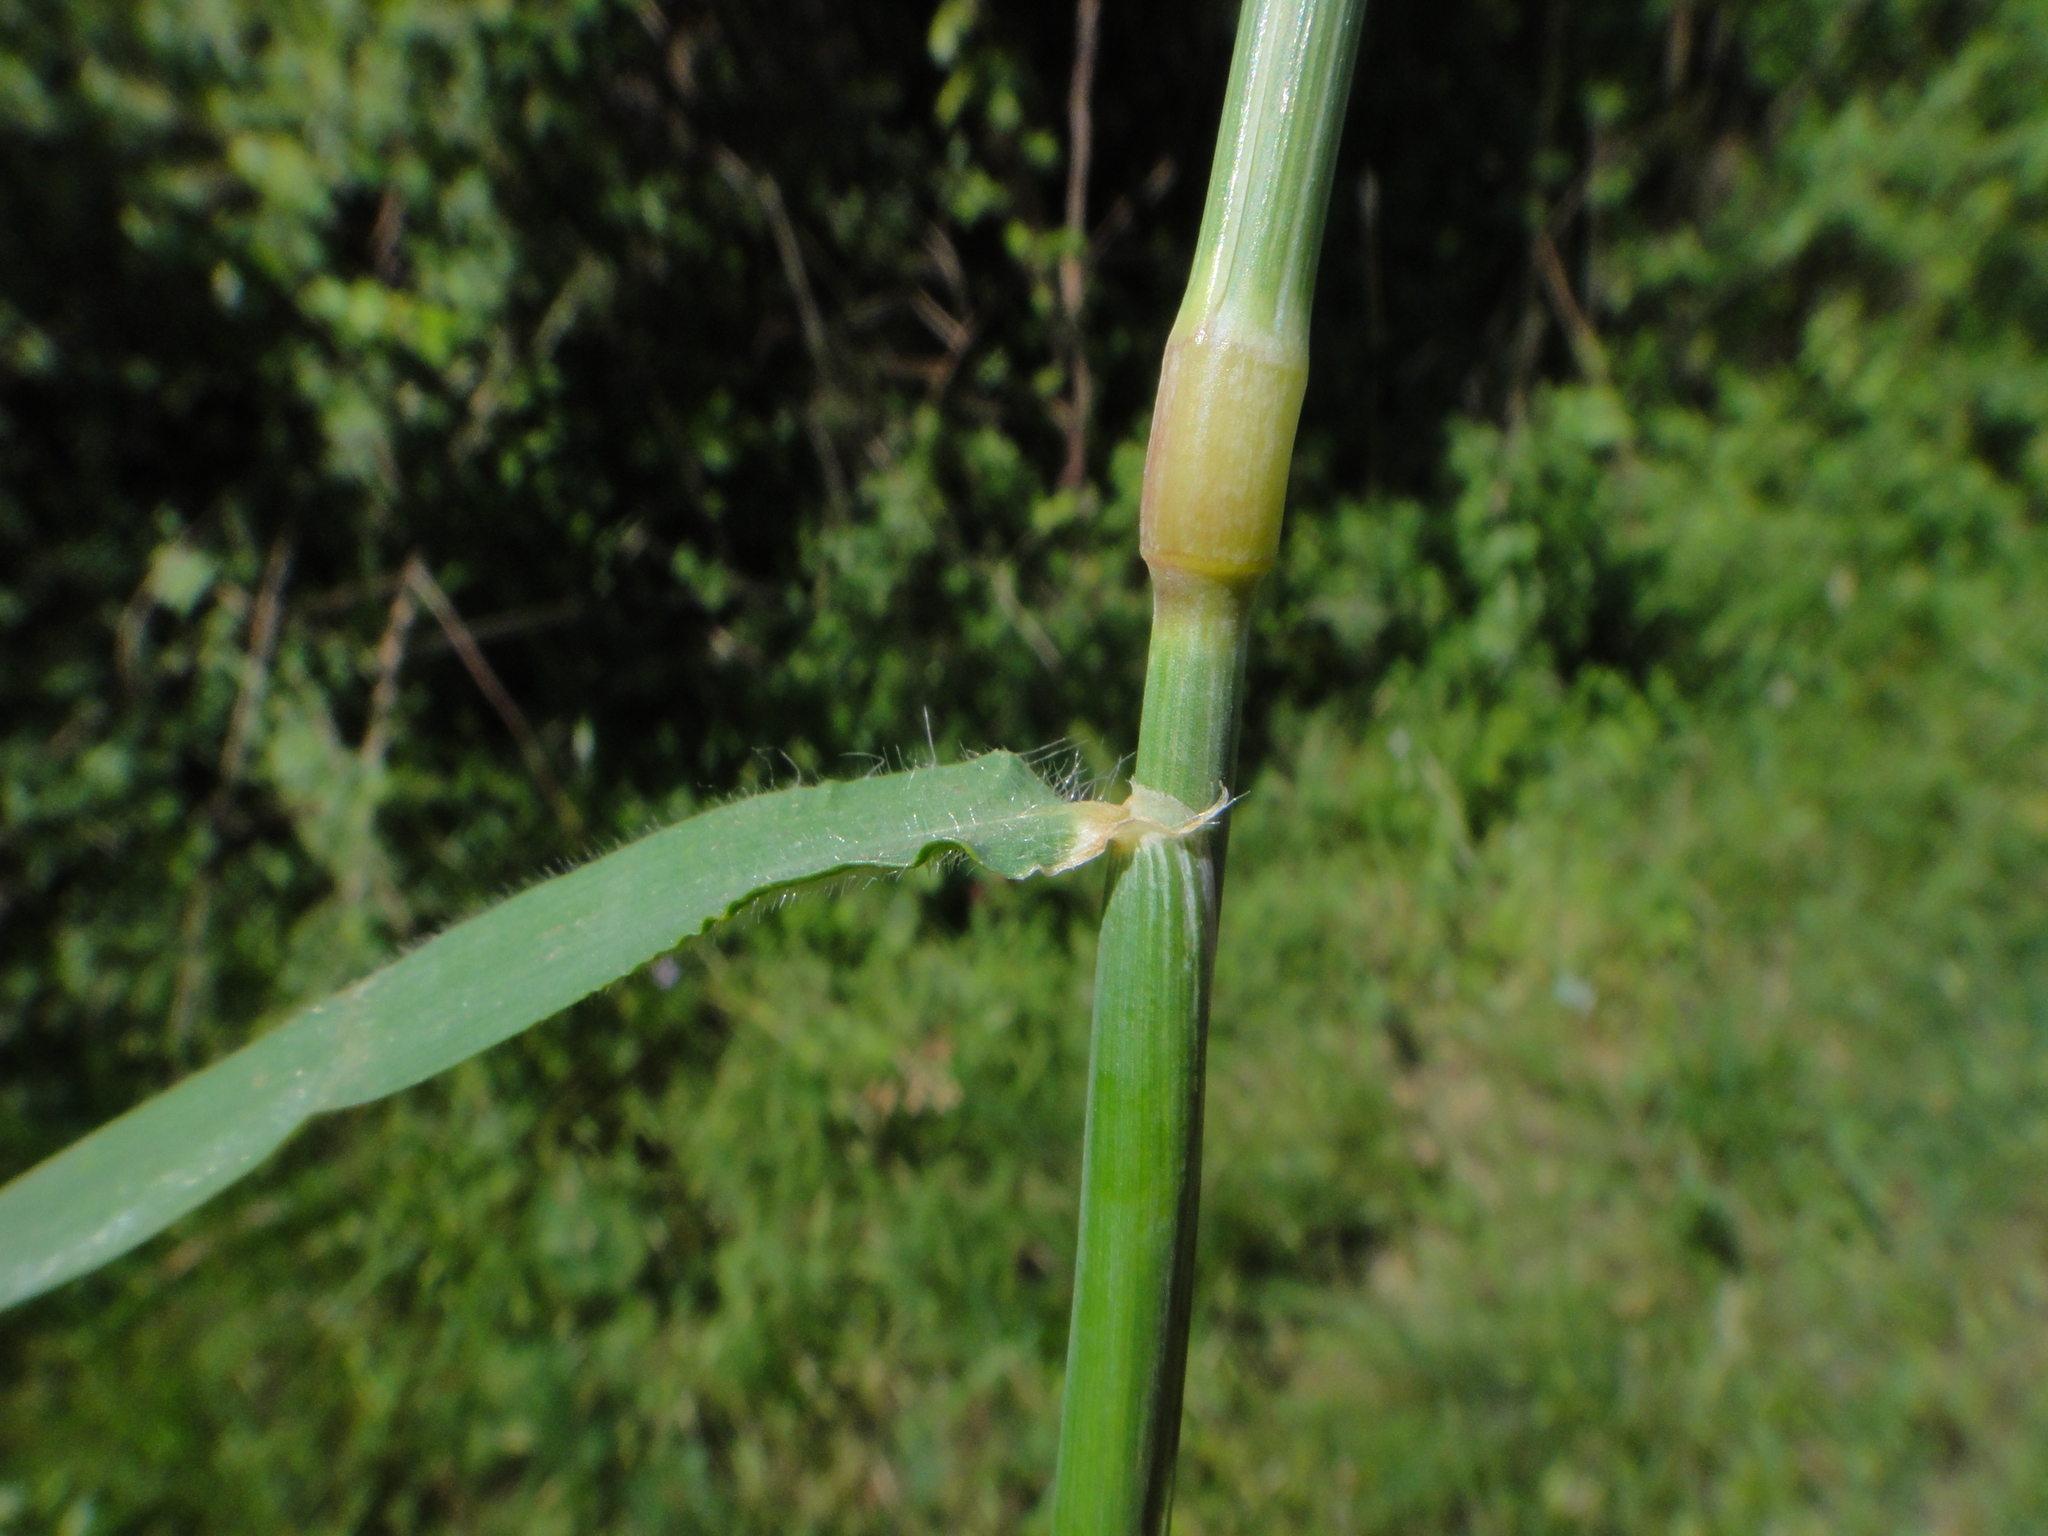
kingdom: Plantae
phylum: Tracheophyta
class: Liliopsida
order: Poales
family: Poaceae
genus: Dasypyrum
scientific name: Dasypyrum villosum
